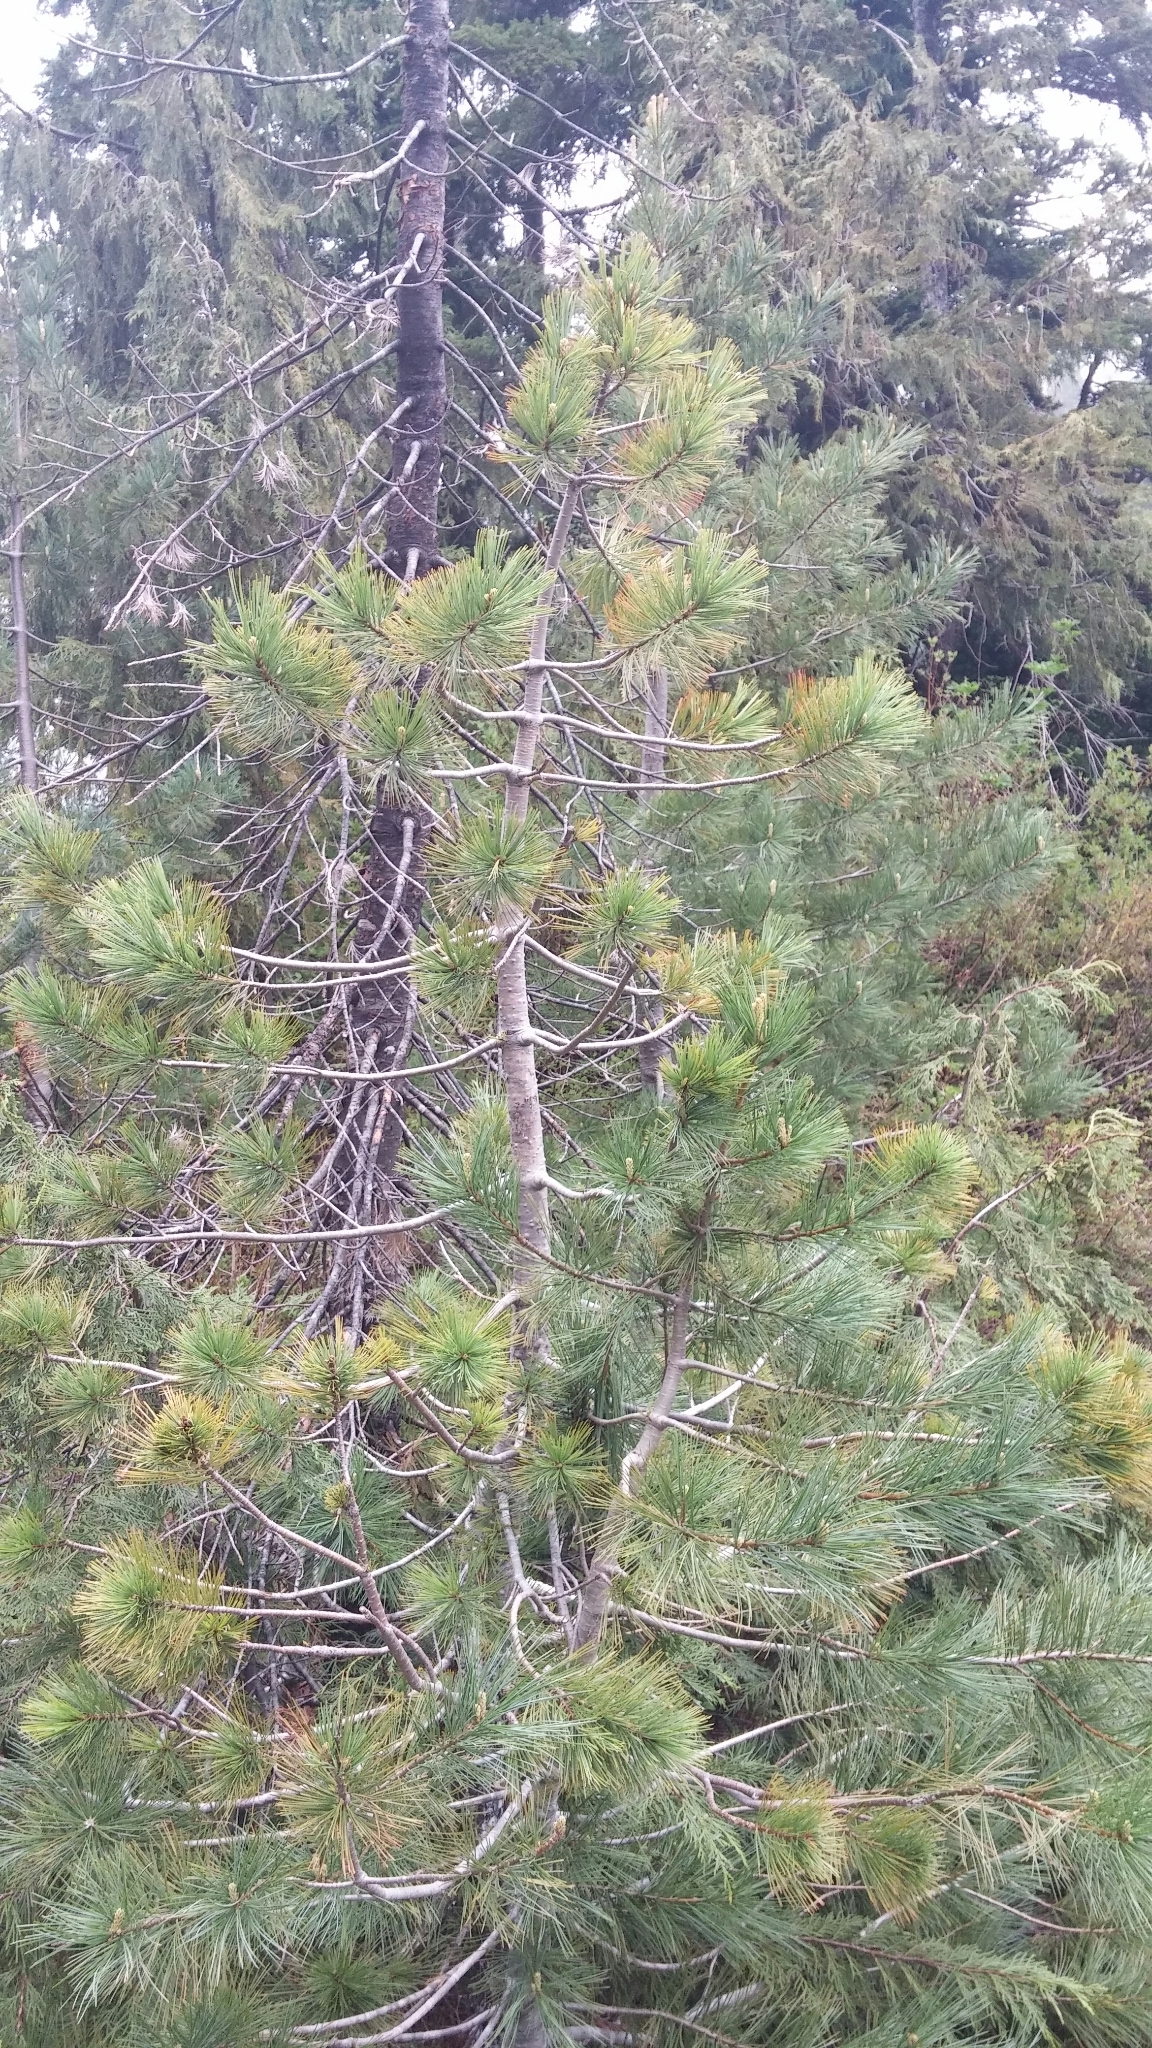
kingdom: Plantae
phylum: Tracheophyta
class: Pinopsida
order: Pinales
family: Pinaceae
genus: Pinus
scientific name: Pinus monticola
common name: Western white pine
